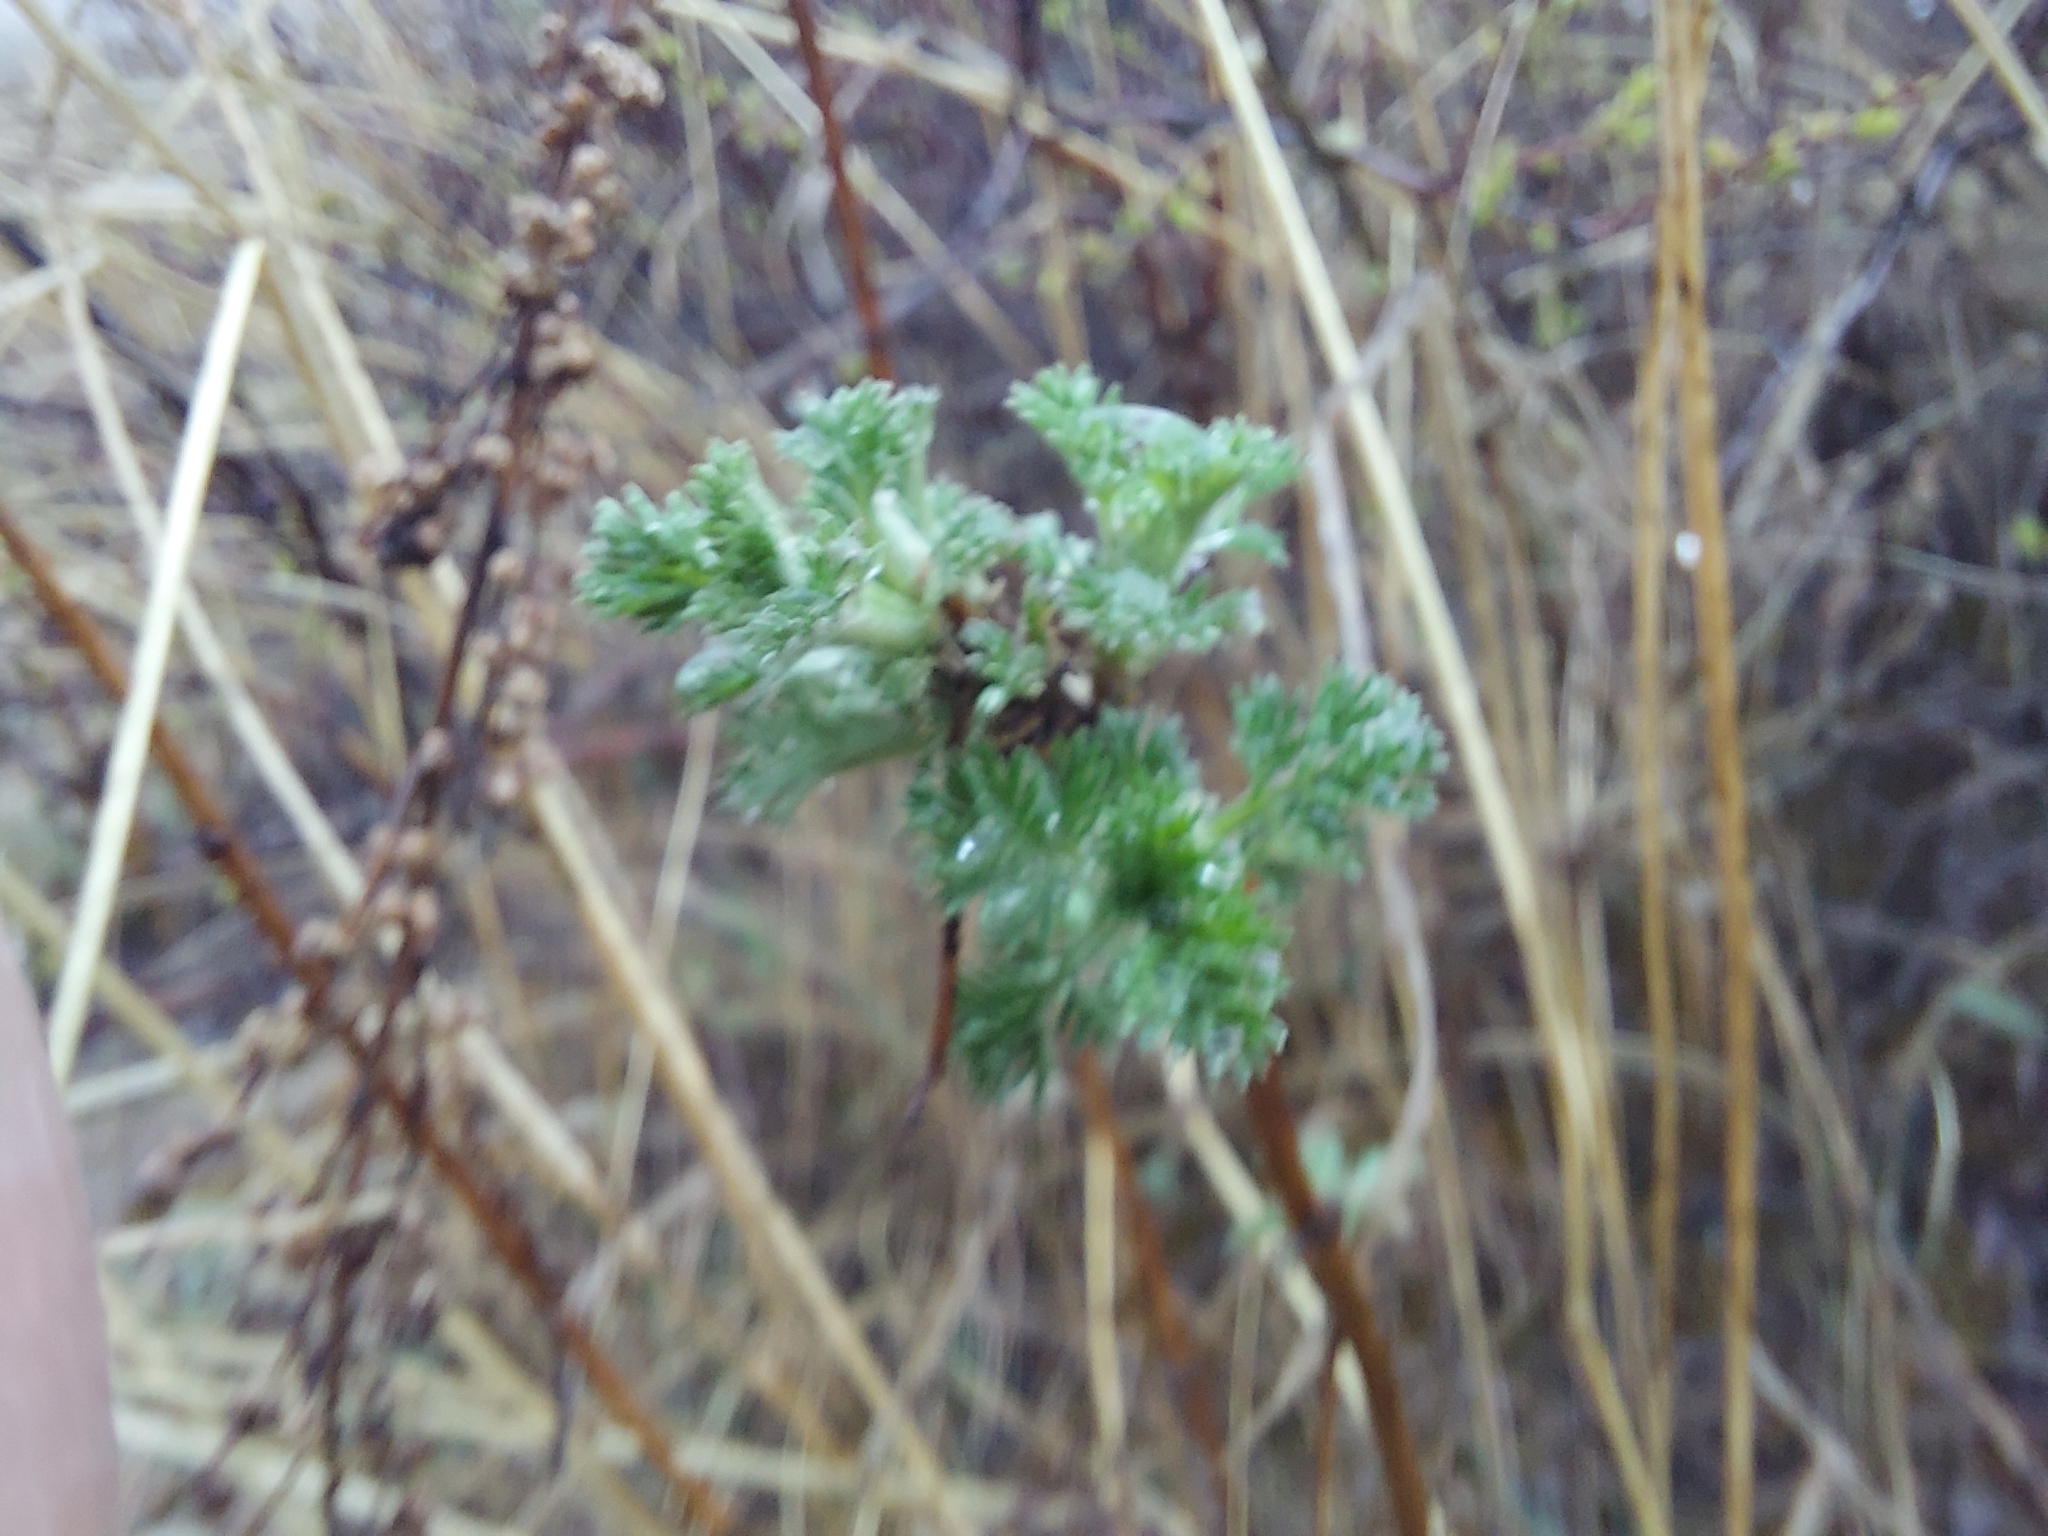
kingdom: Plantae
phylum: Tracheophyta
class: Magnoliopsida
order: Asterales
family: Asteraceae
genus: Artemisia
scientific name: Artemisia frigida
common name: Prairie sagewort
